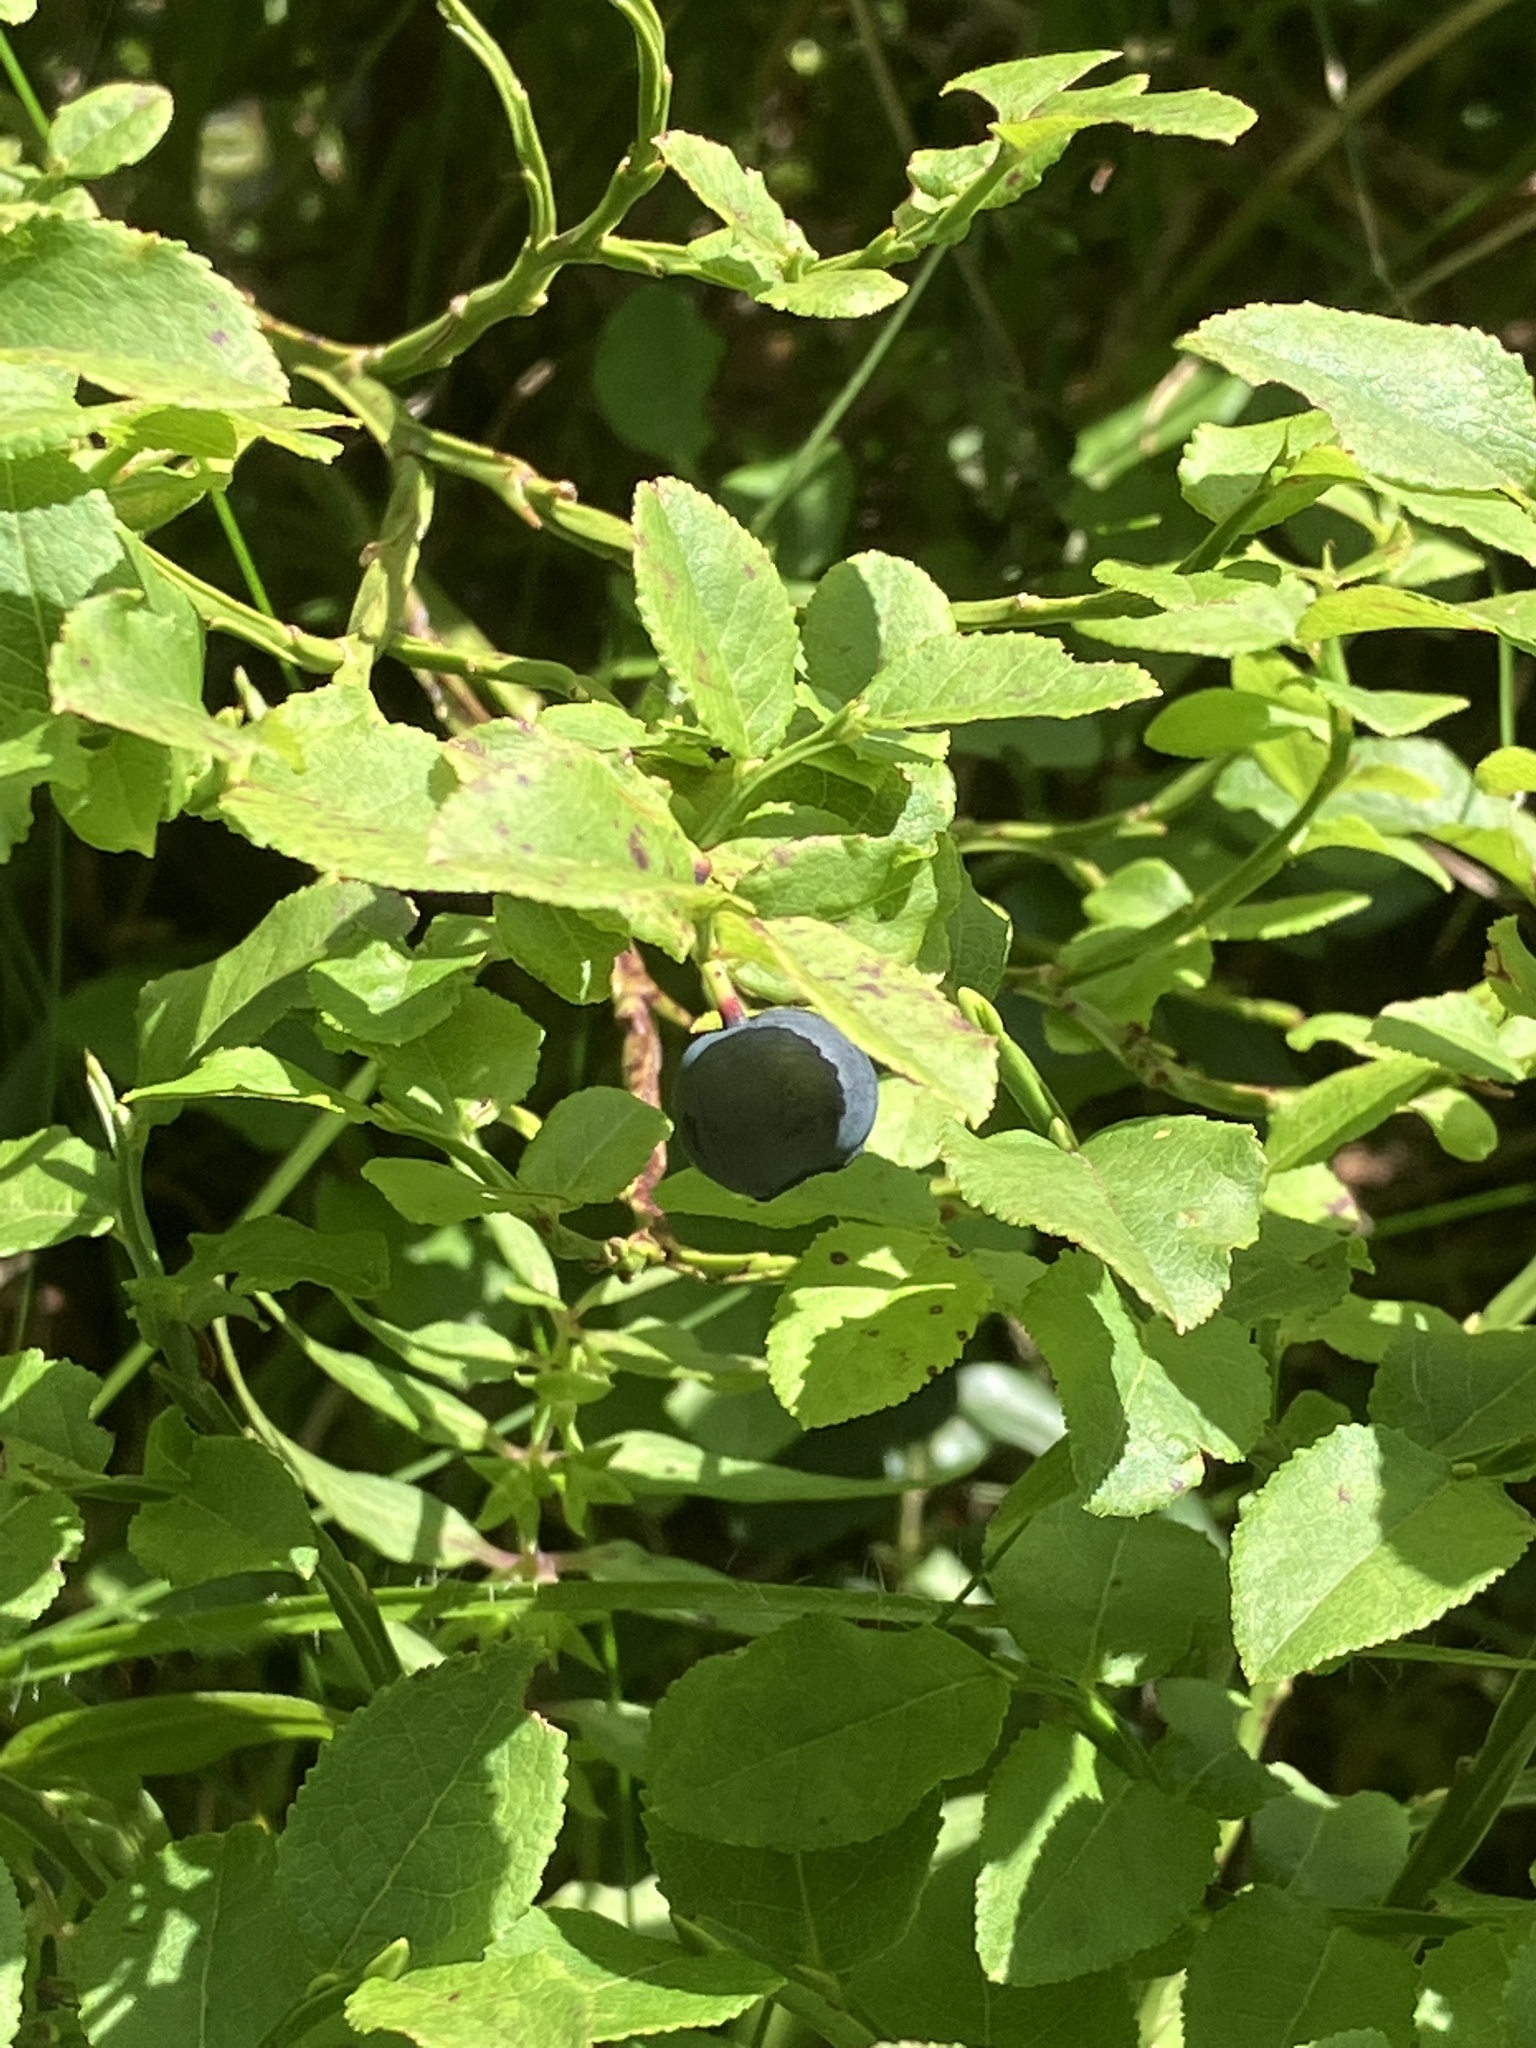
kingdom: Plantae
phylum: Tracheophyta
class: Magnoliopsida
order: Ericales
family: Ericaceae
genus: Vaccinium
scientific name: Vaccinium myrtillus
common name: Bilberry
